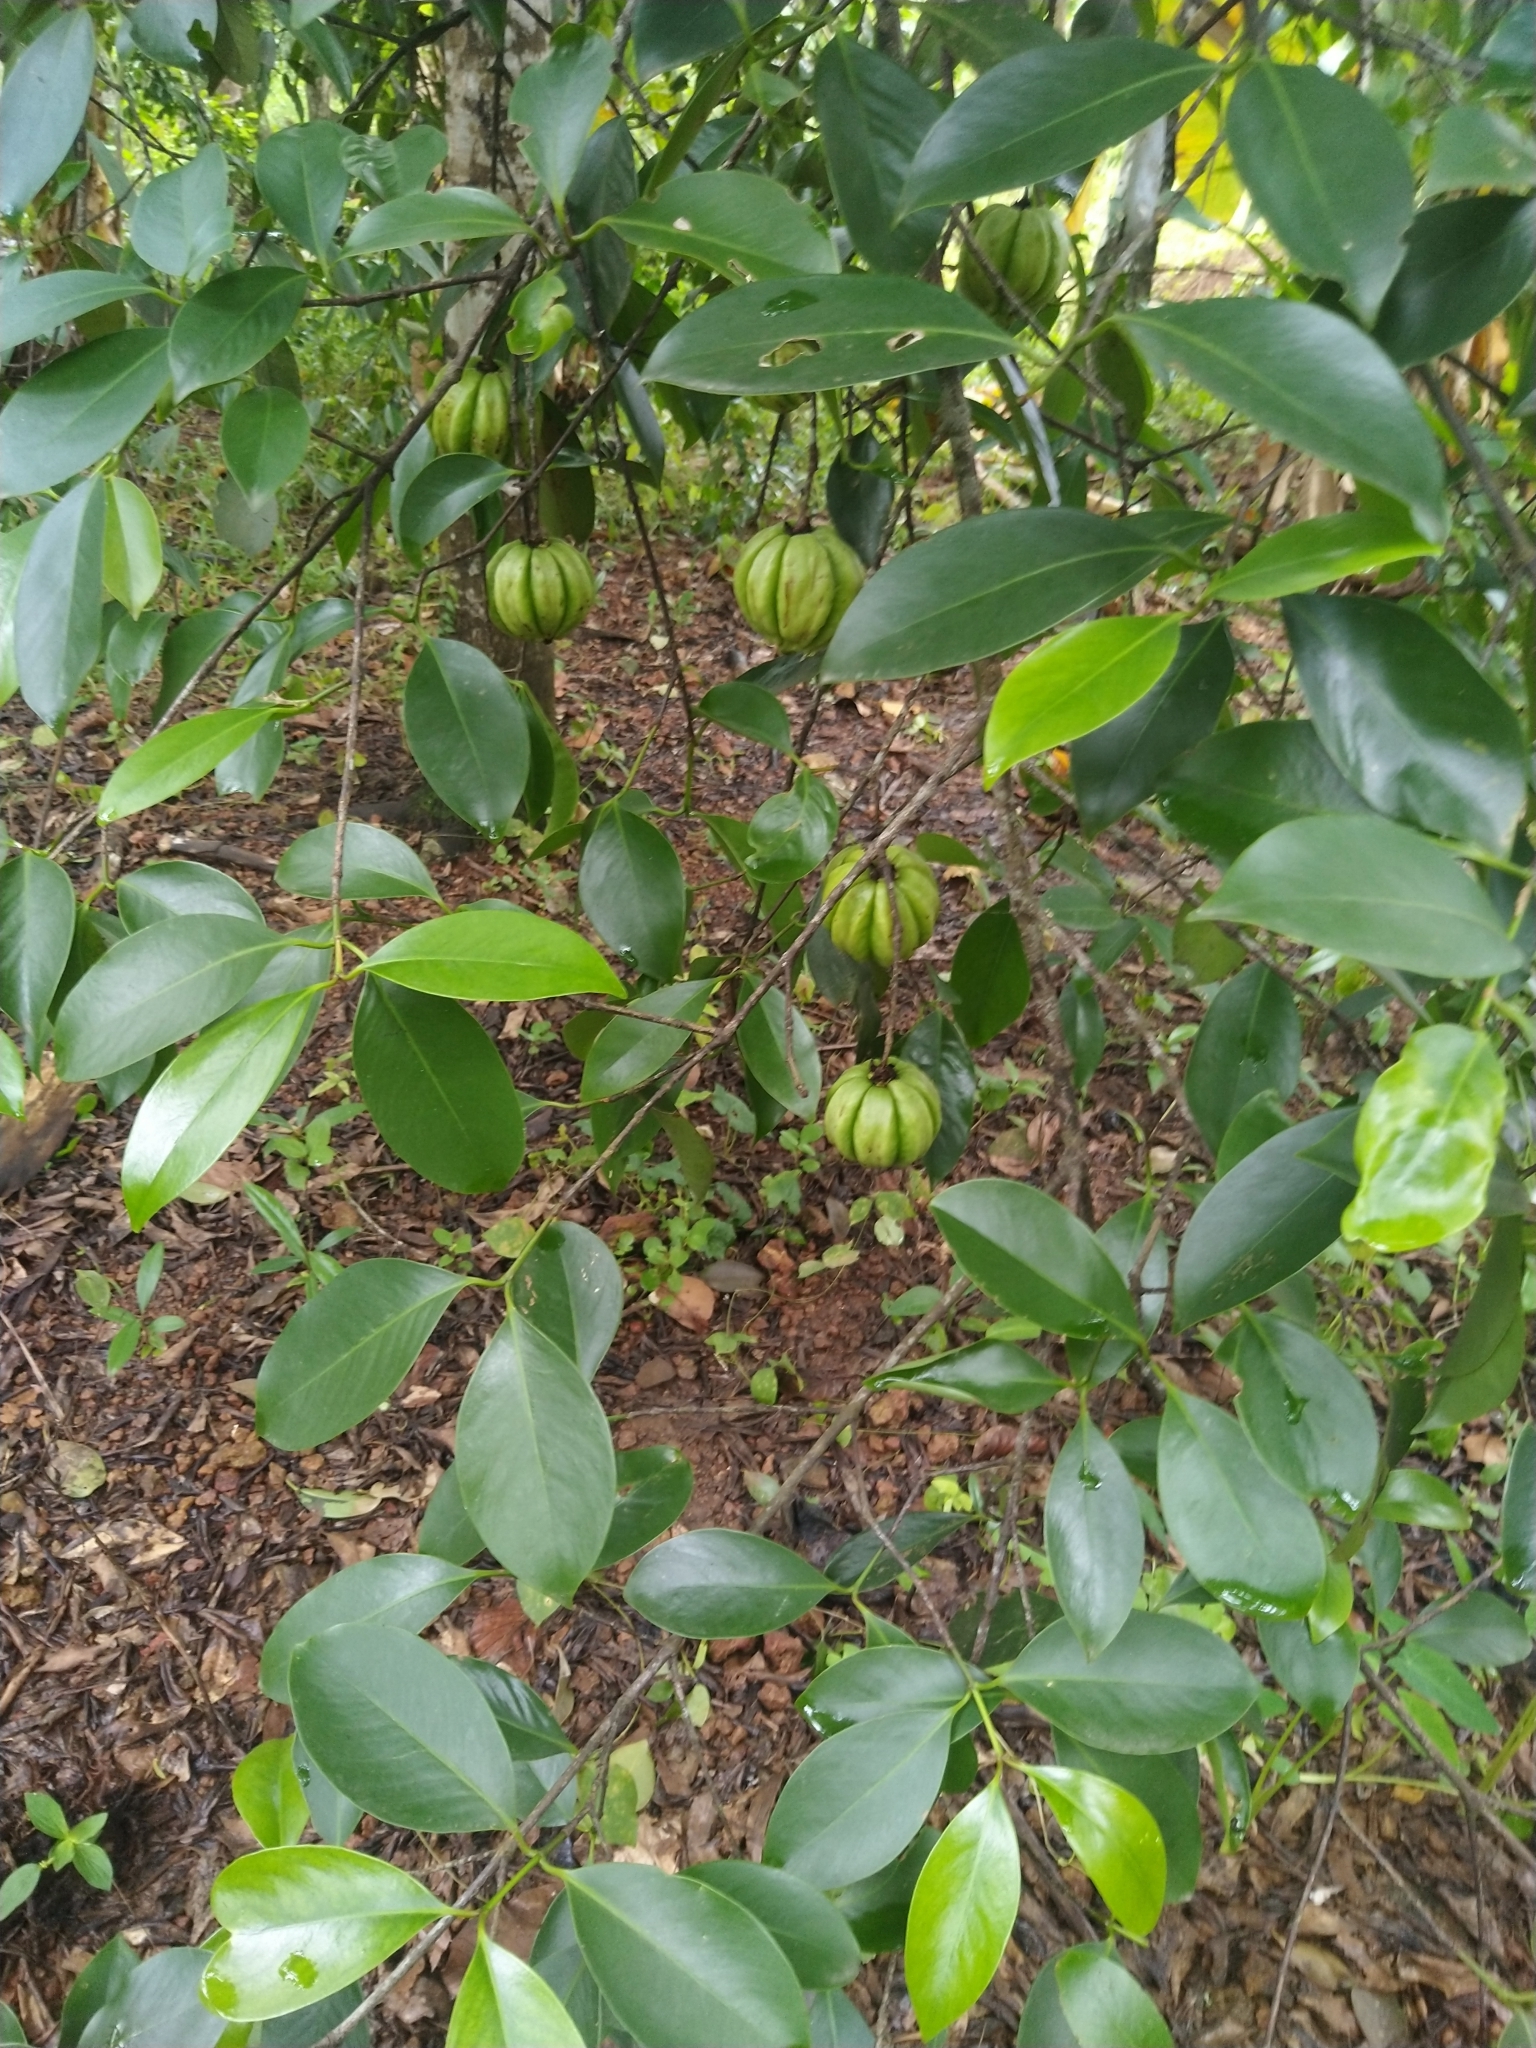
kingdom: Plantae
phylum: Tracheophyta
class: Magnoliopsida
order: Malpighiales
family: Clusiaceae
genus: Garcinia
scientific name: Garcinia gummi-gutta
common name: Malabar tamarind
